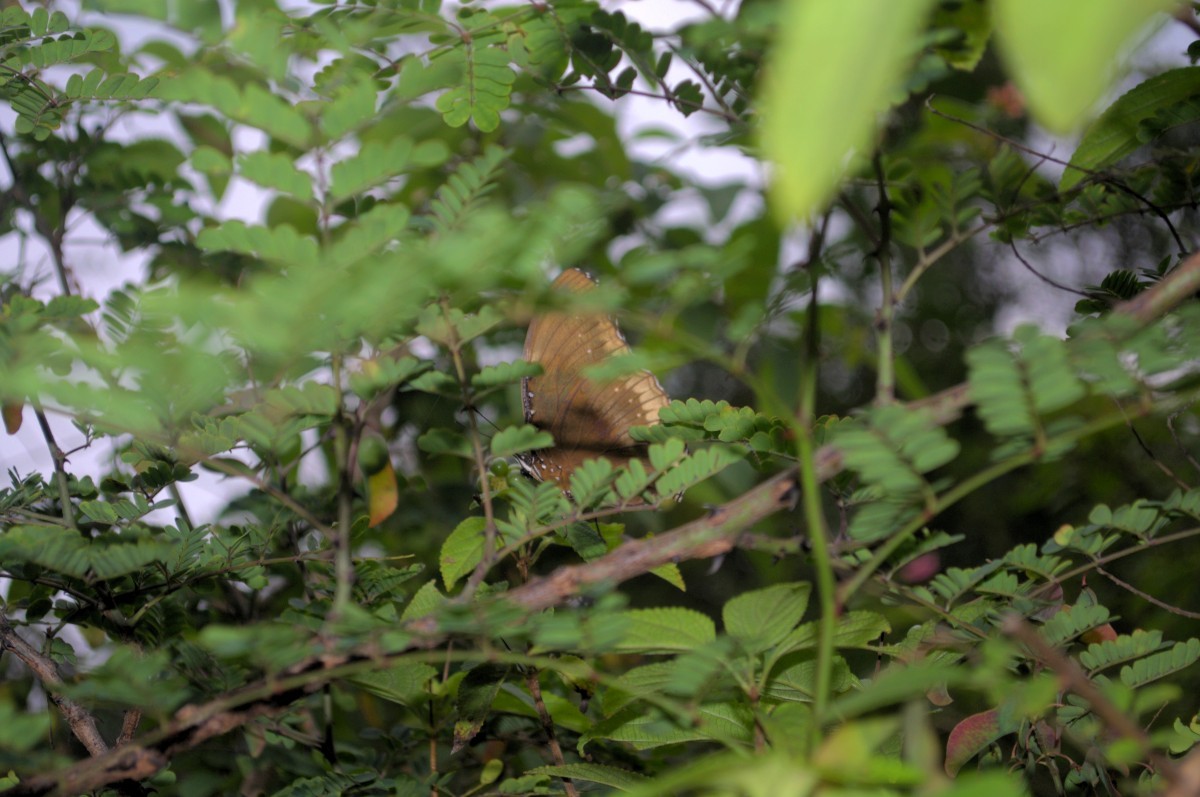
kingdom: Animalia
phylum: Arthropoda
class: Insecta
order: Lepidoptera
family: Nymphalidae
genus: Hypolimnas
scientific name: Hypolimnas bolina
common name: Great eggfly
